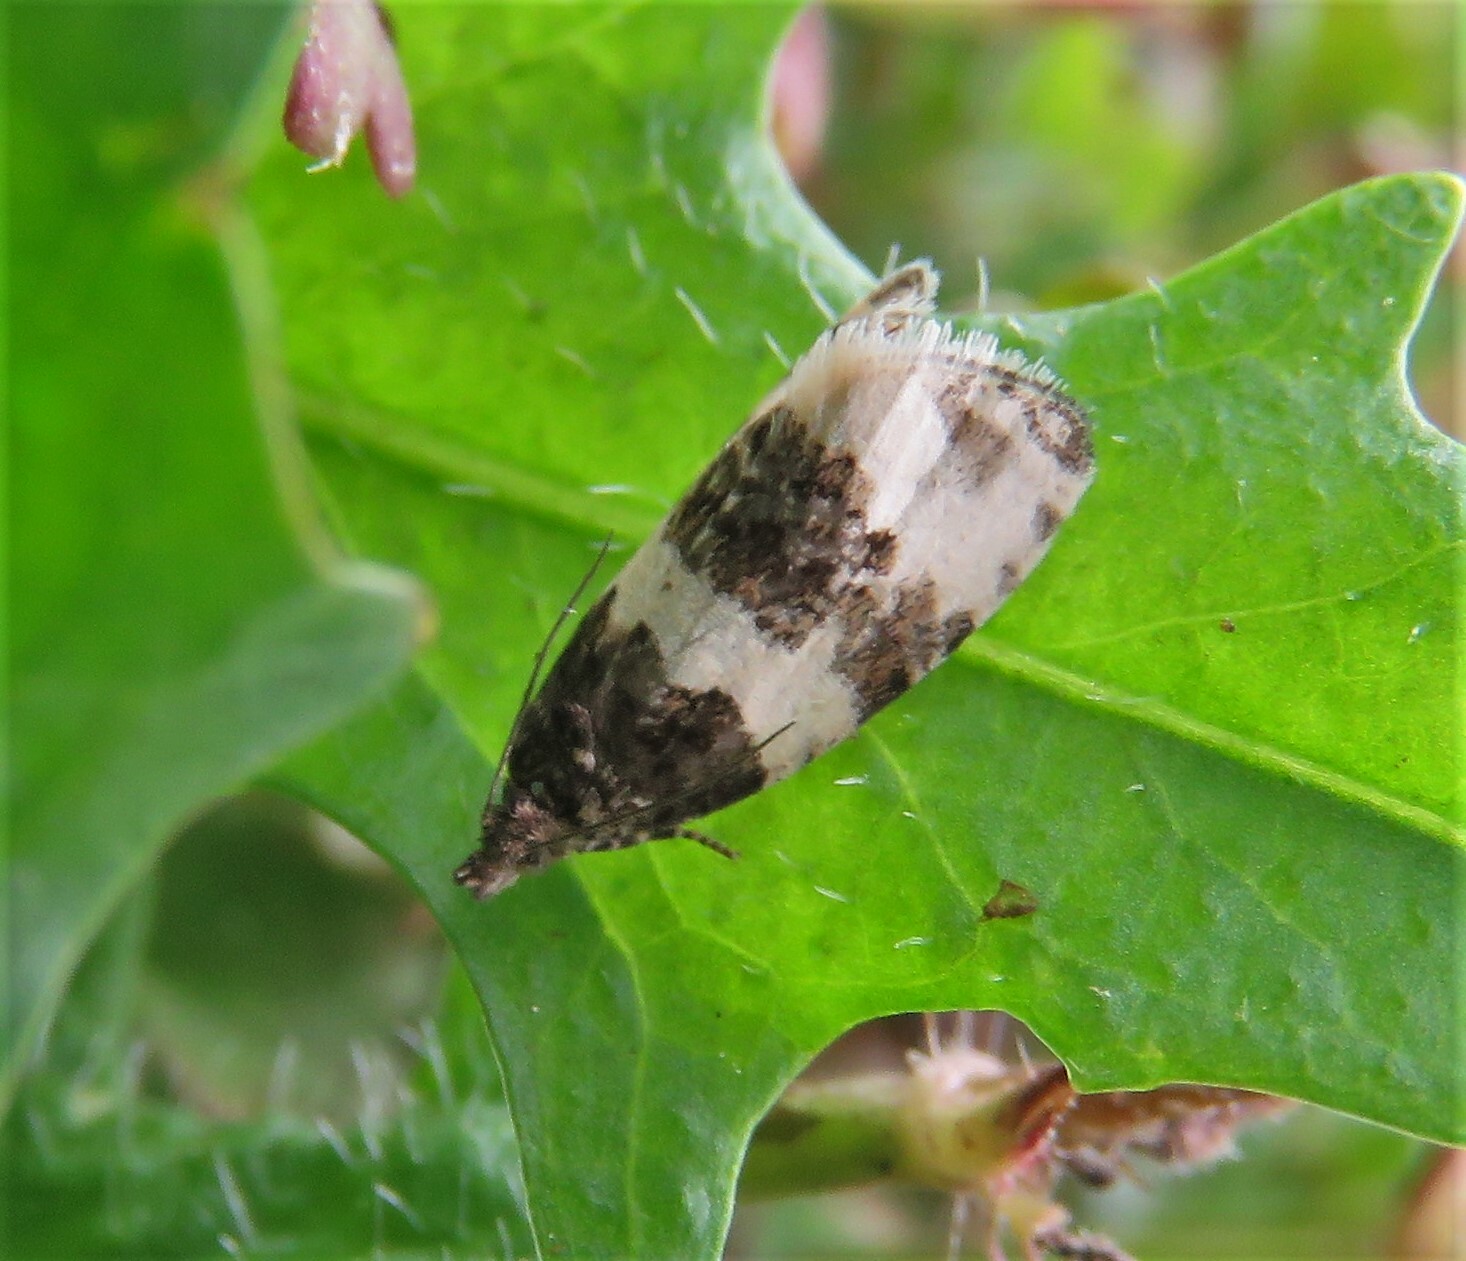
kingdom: Animalia
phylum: Arthropoda
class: Insecta
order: Lepidoptera
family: Tortricidae
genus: Olethreutes
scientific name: Olethreutes bipartitana
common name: Divided olethreutes moth
